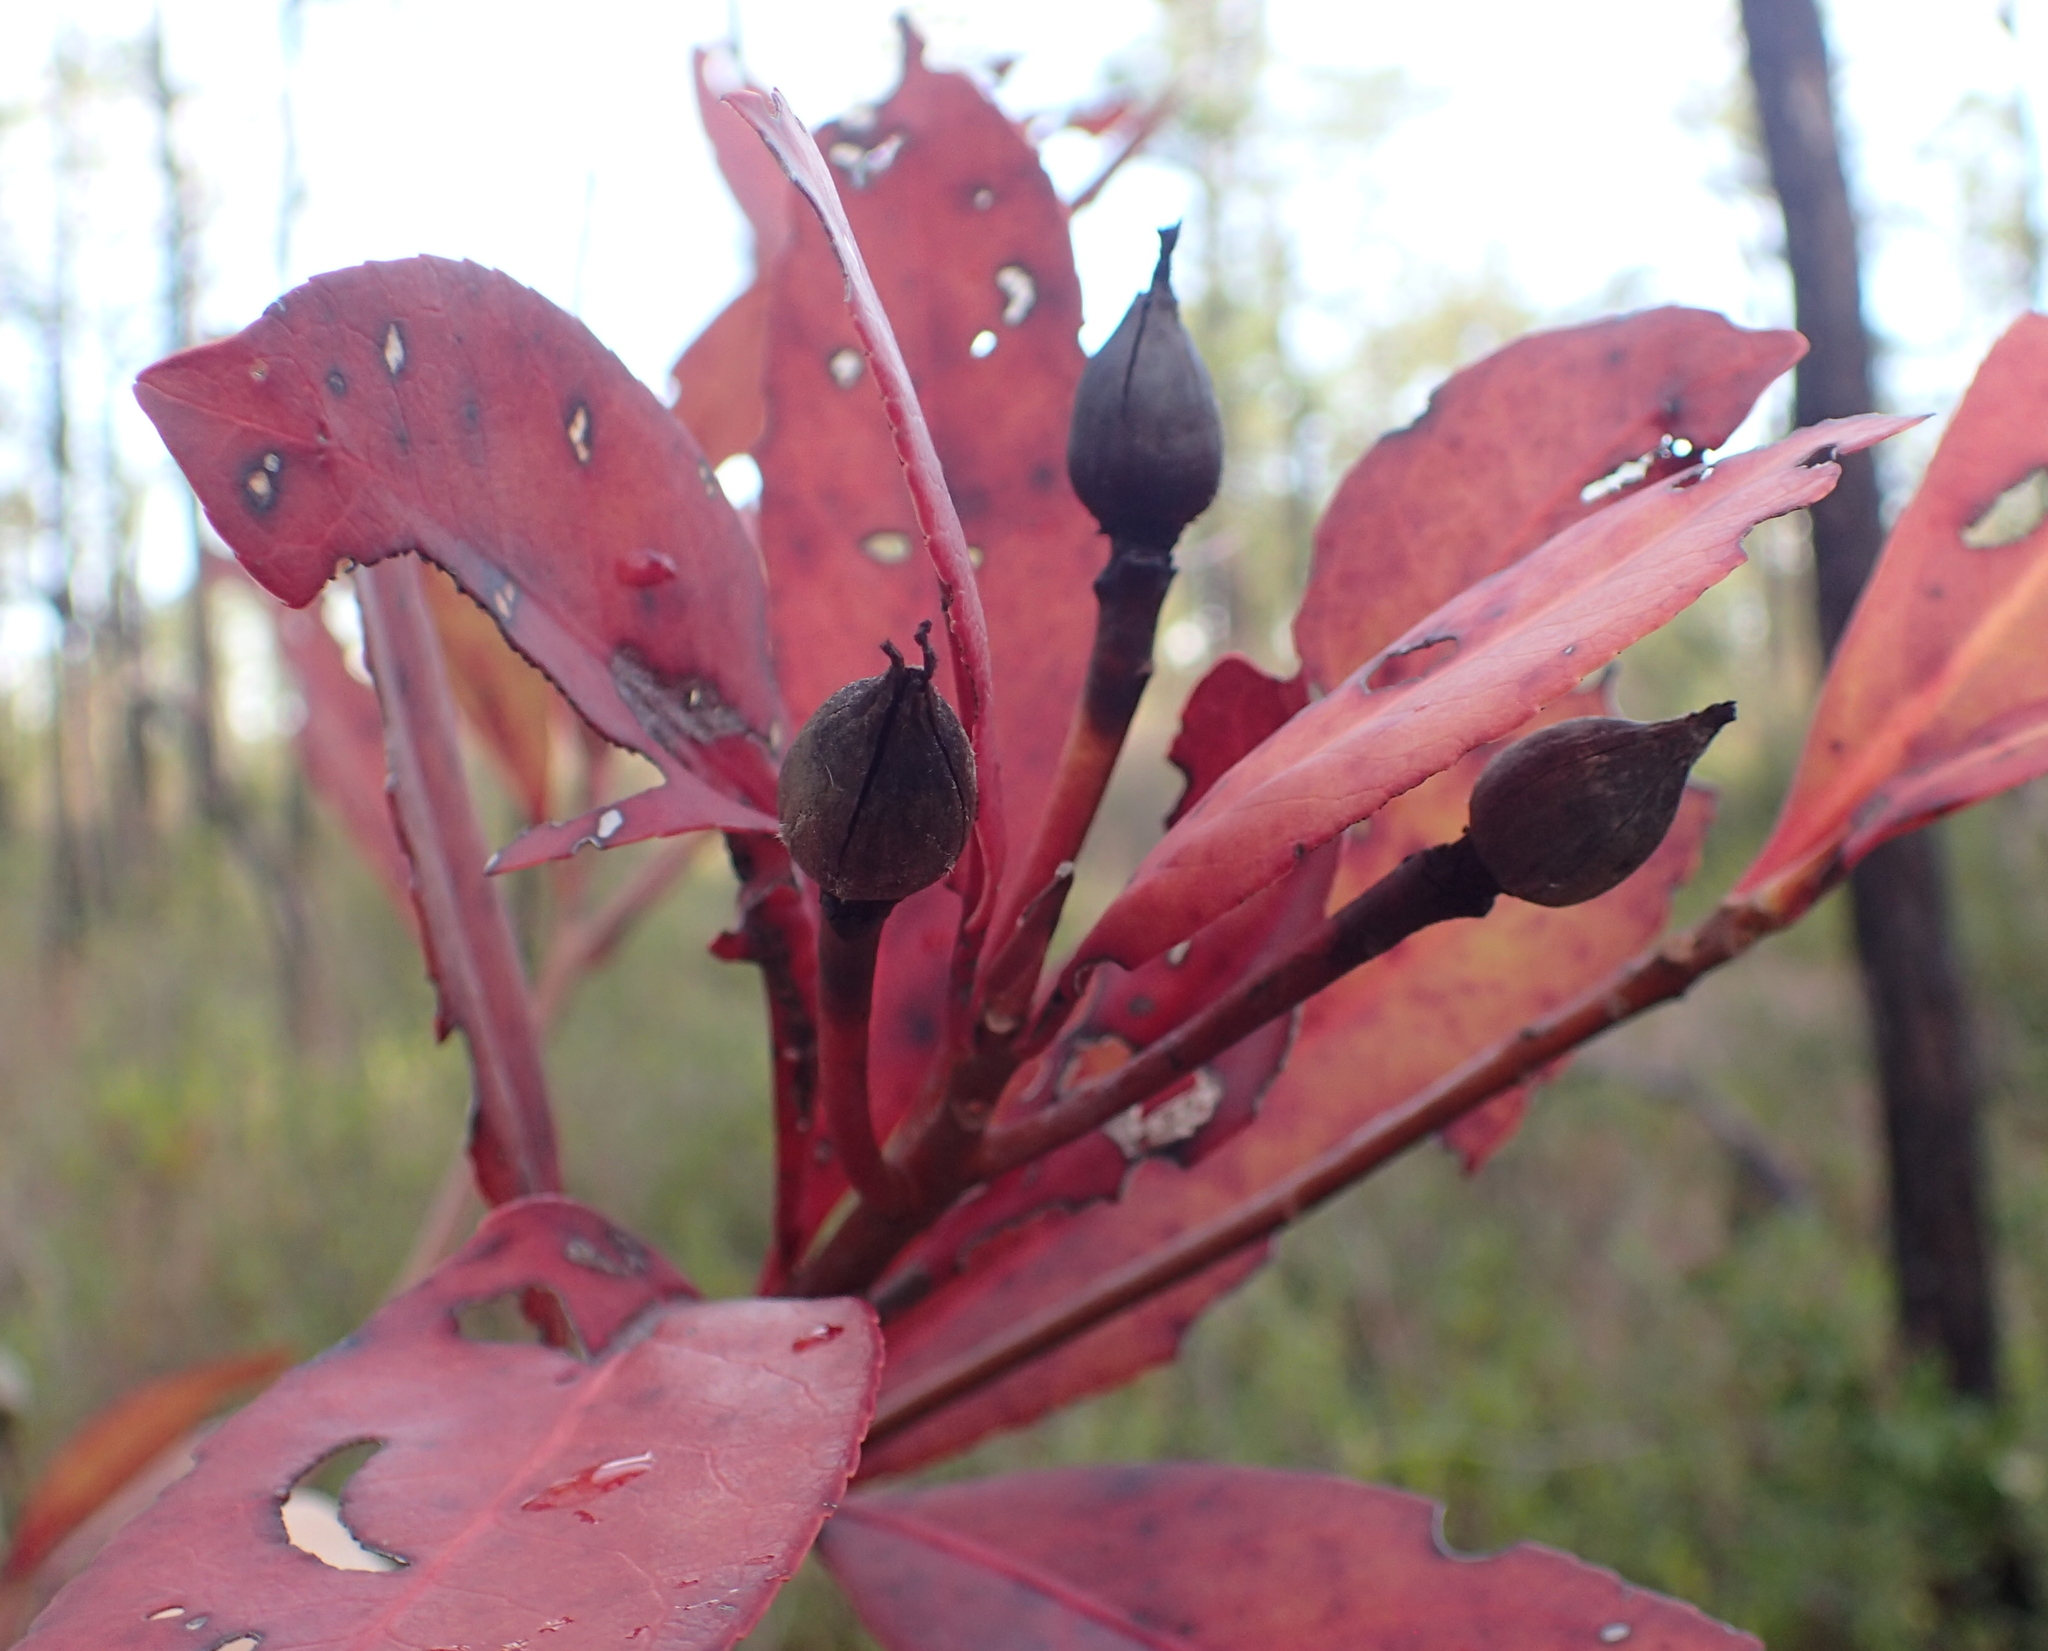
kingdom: Plantae
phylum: Tracheophyta
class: Magnoliopsida
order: Ericales
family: Theaceae
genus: Gordonia
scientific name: Gordonia lasianthus
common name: Loblolly bay
